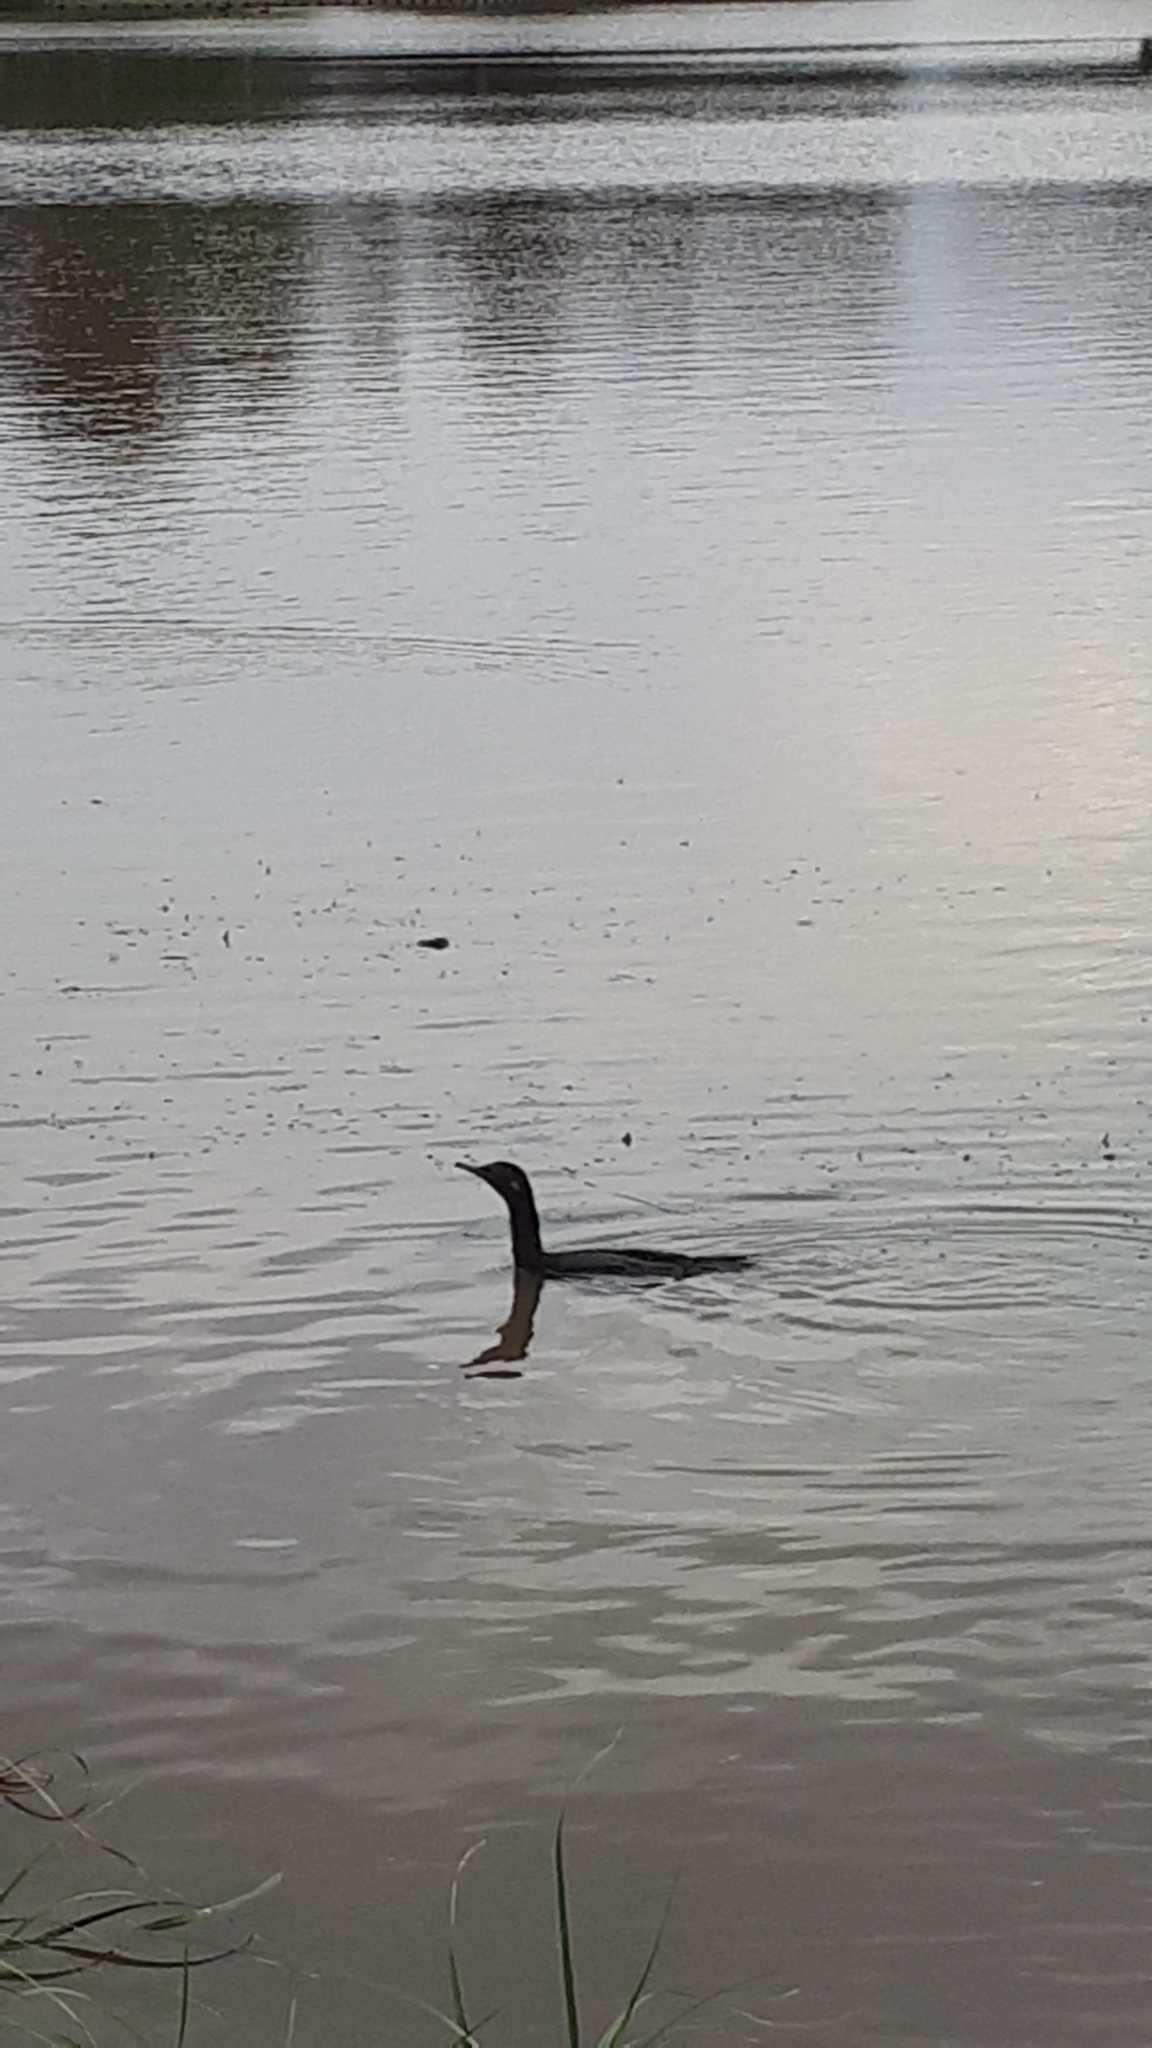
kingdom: Animalia
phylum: Chordata
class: Aves
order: Suliformes
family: Phalacrocoracidae
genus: Phalacrocorax
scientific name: Phalacrocorax sulcirostris
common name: Little black cormorant
